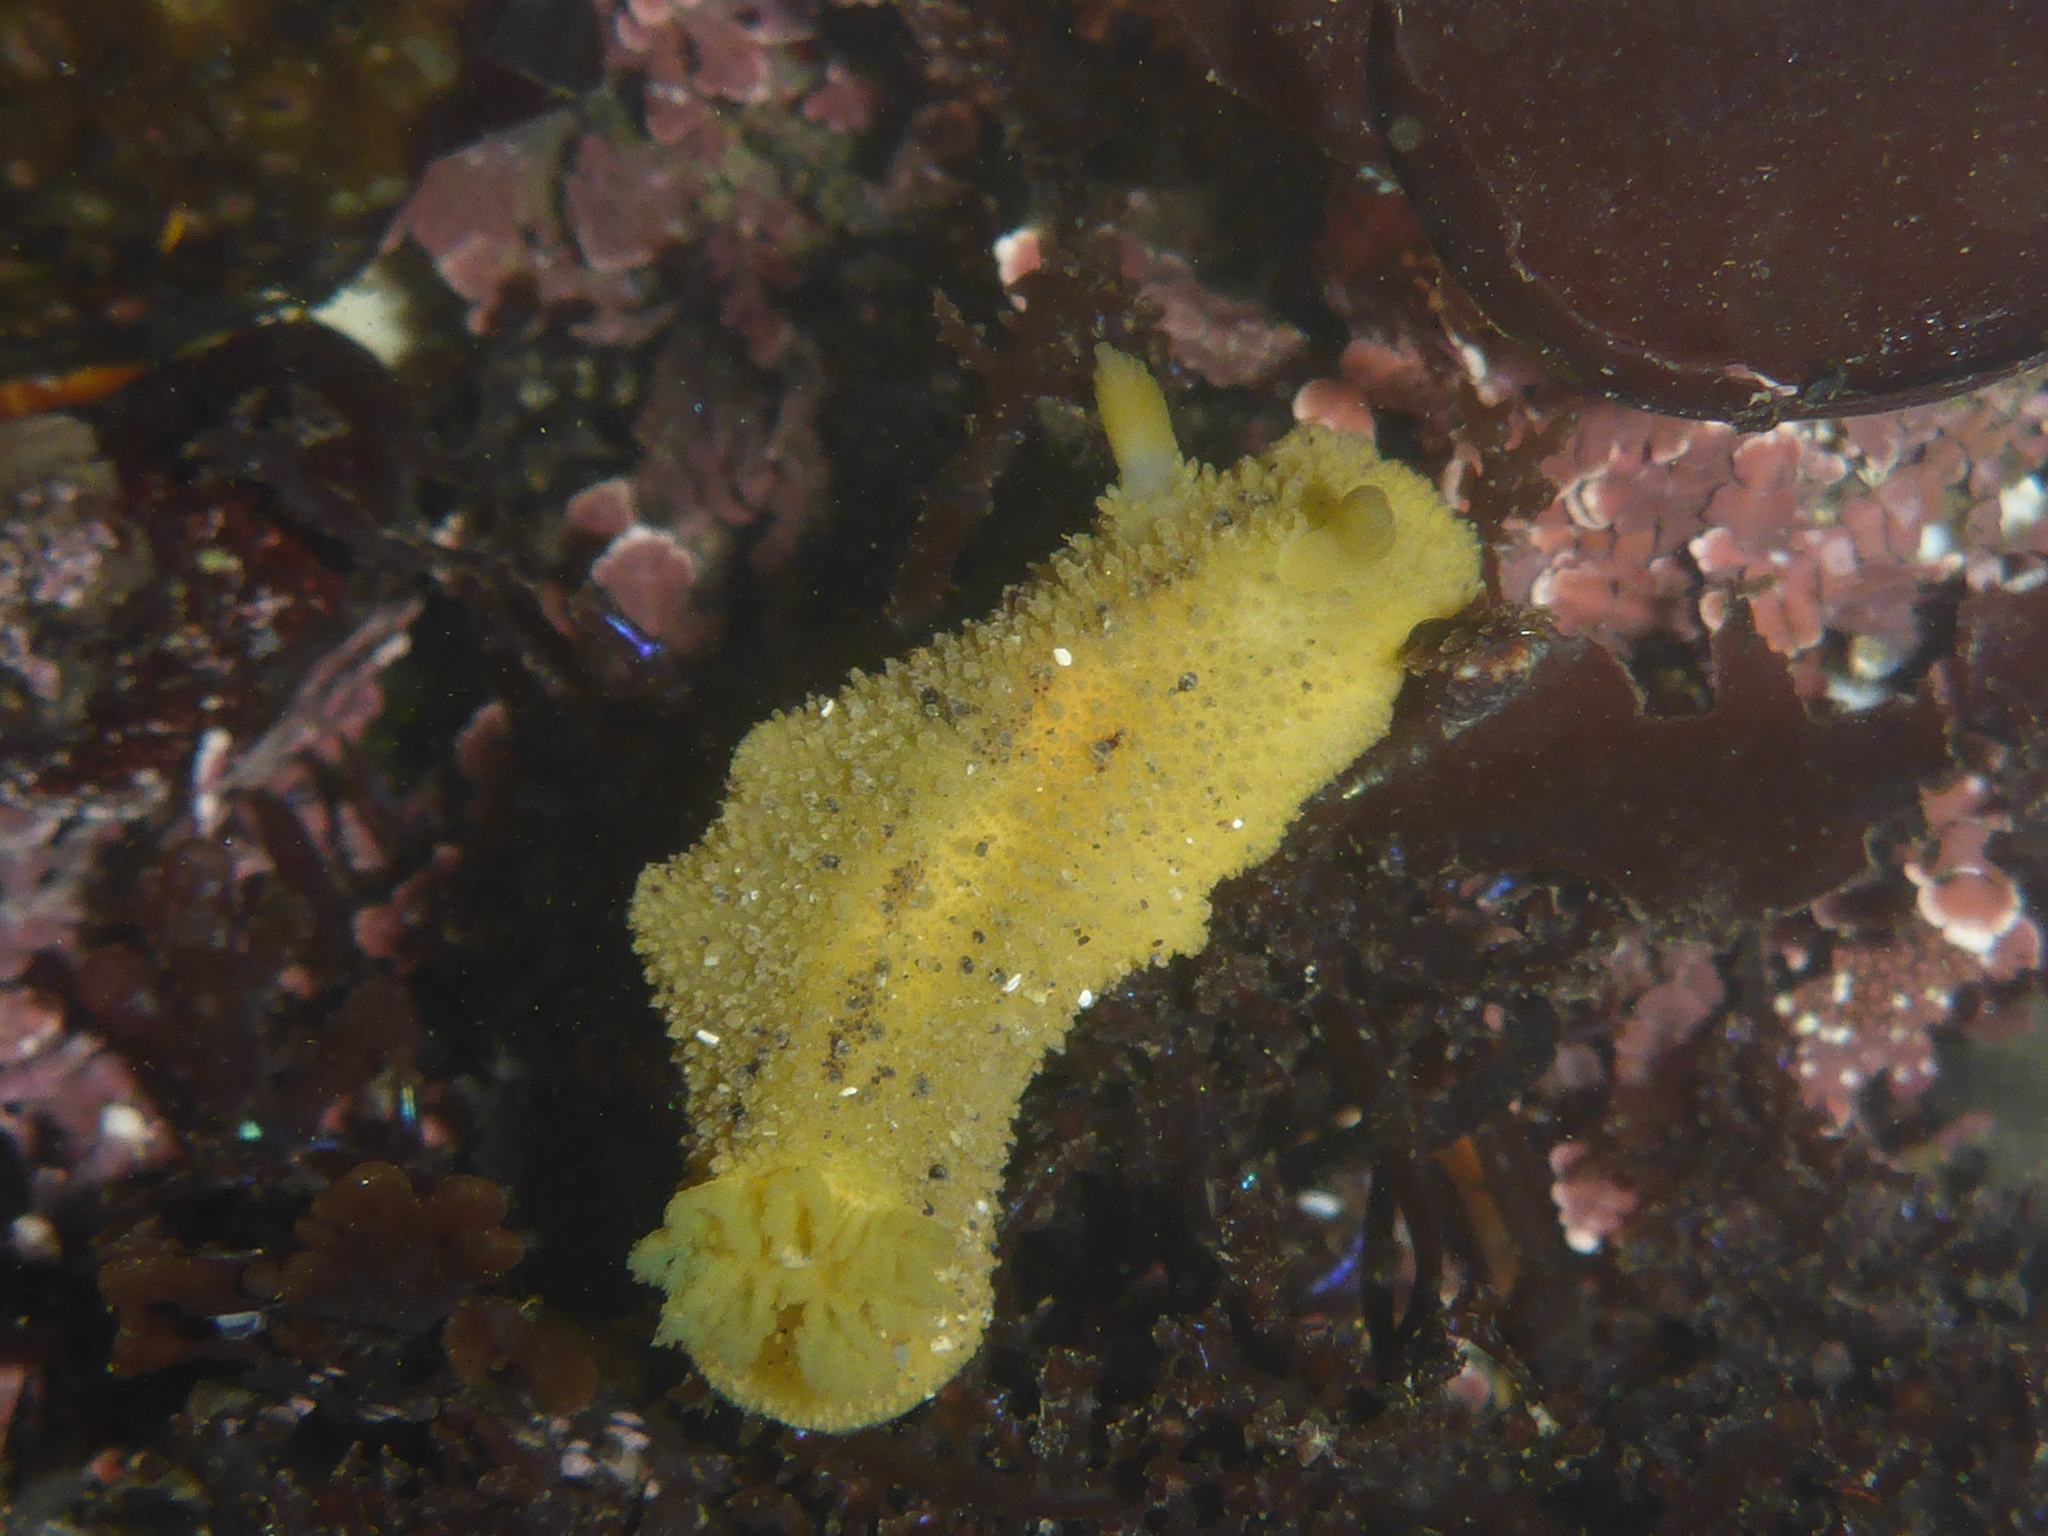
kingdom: Animalia
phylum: Mollusca
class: Gastropoda
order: Nudibranchia
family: Dorididae
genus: Doris
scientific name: Doris montereyensis
